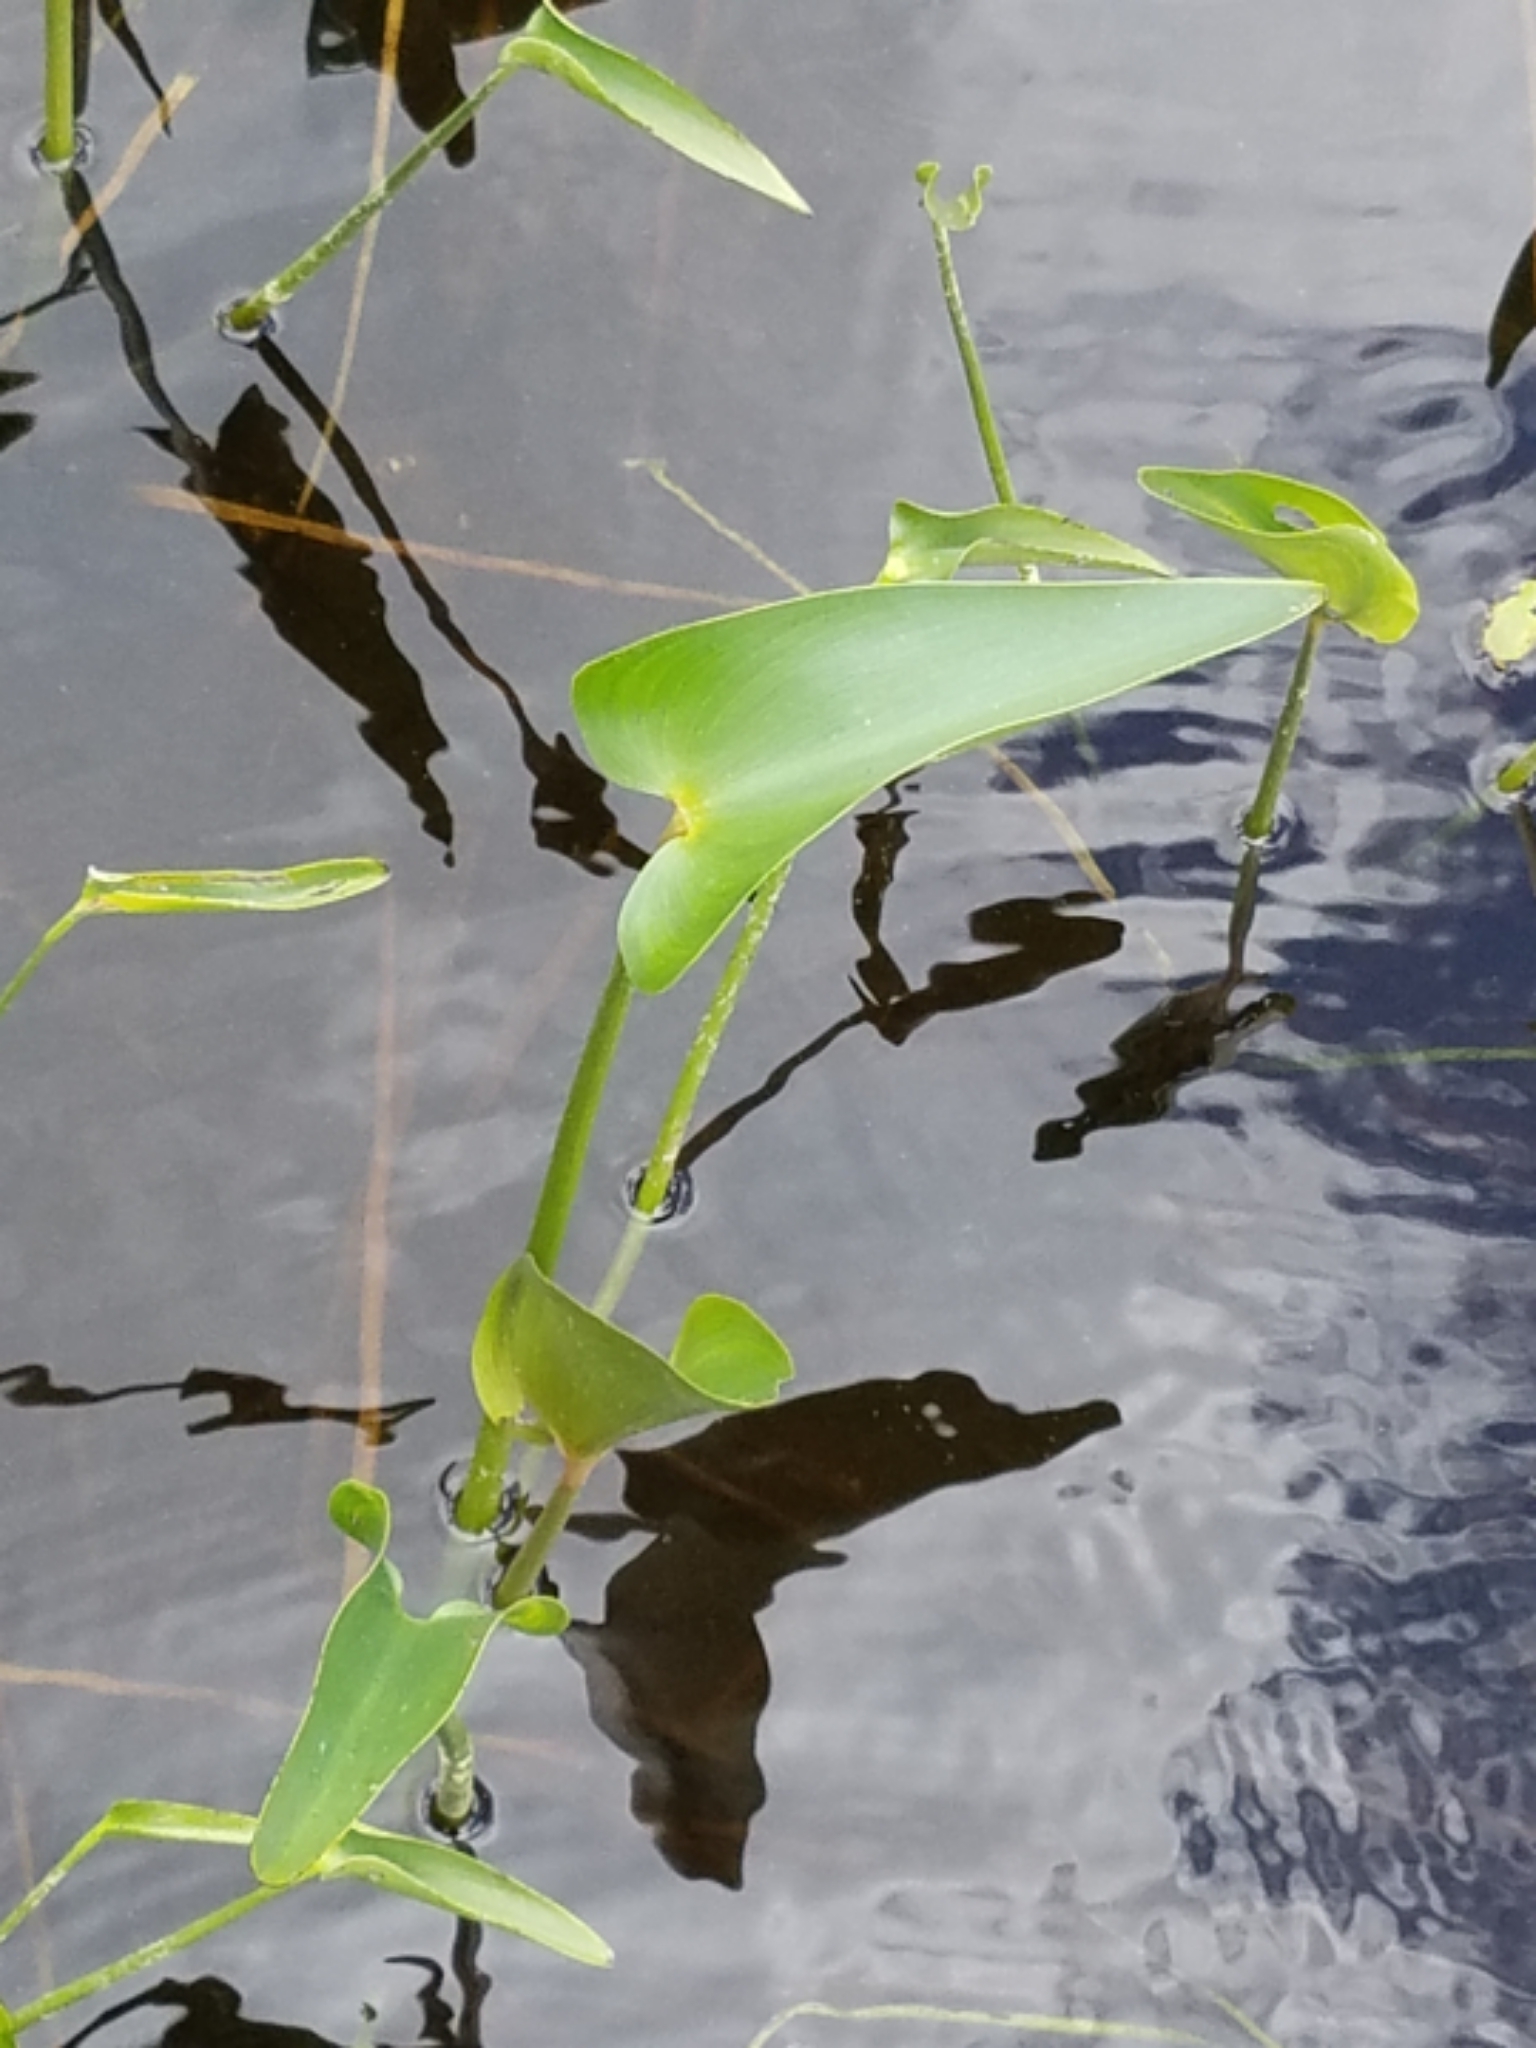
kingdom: Plantae
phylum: Tracheophyta
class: Liliopsida
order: Commelinales
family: Pontederiaceae
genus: Pontederia
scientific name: Pontederia cordata
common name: Pickerelweed
